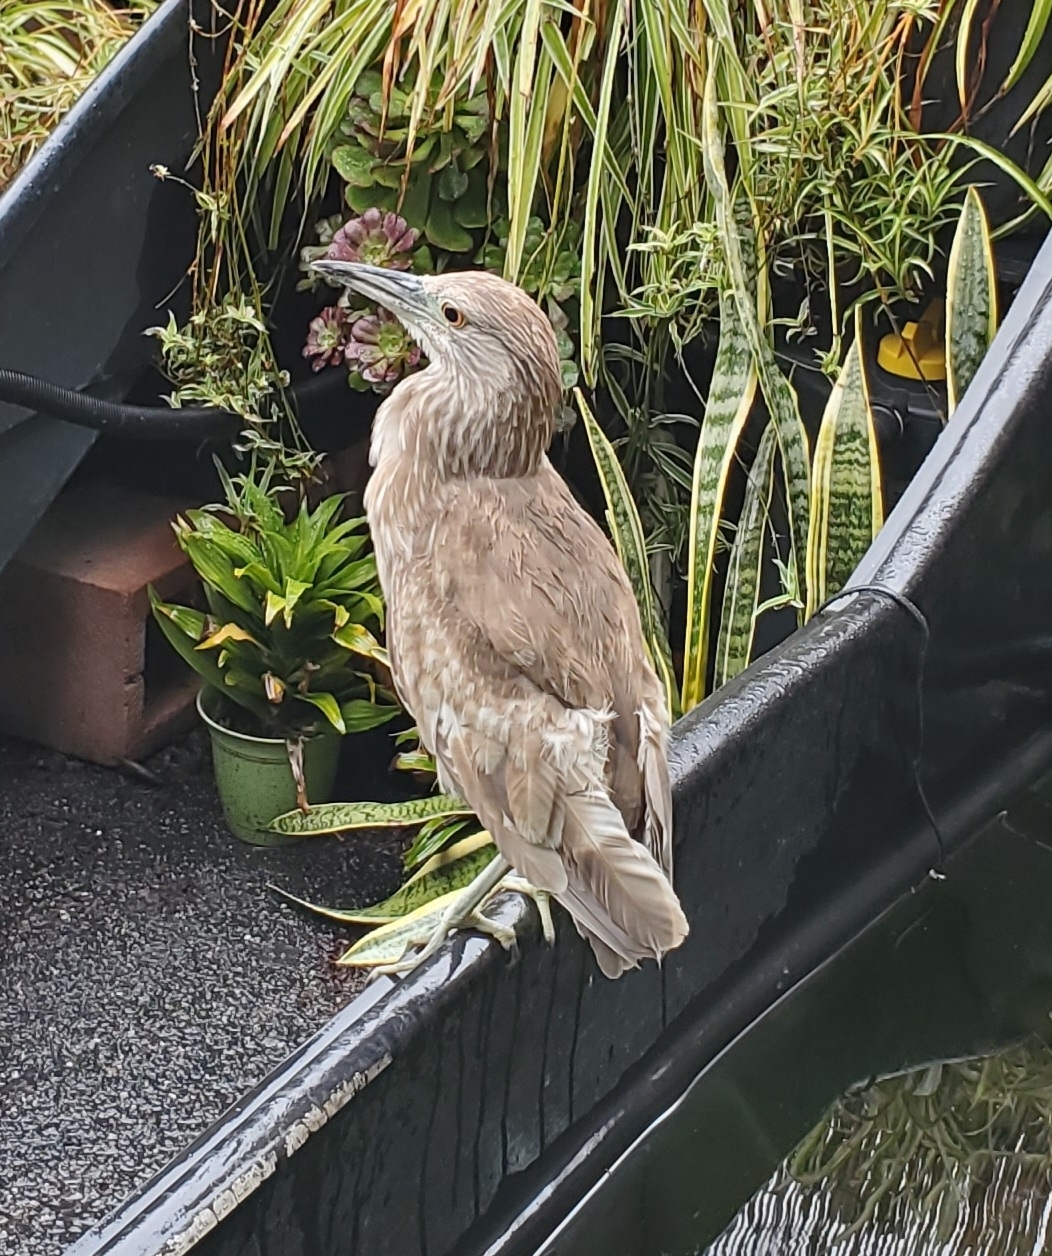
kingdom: Animalia
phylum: Chordata
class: Aves
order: Pelecaniformes
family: Ardeidae
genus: Nycticorax
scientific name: Nycticorax nycticorax
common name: Black-crowned night heron
